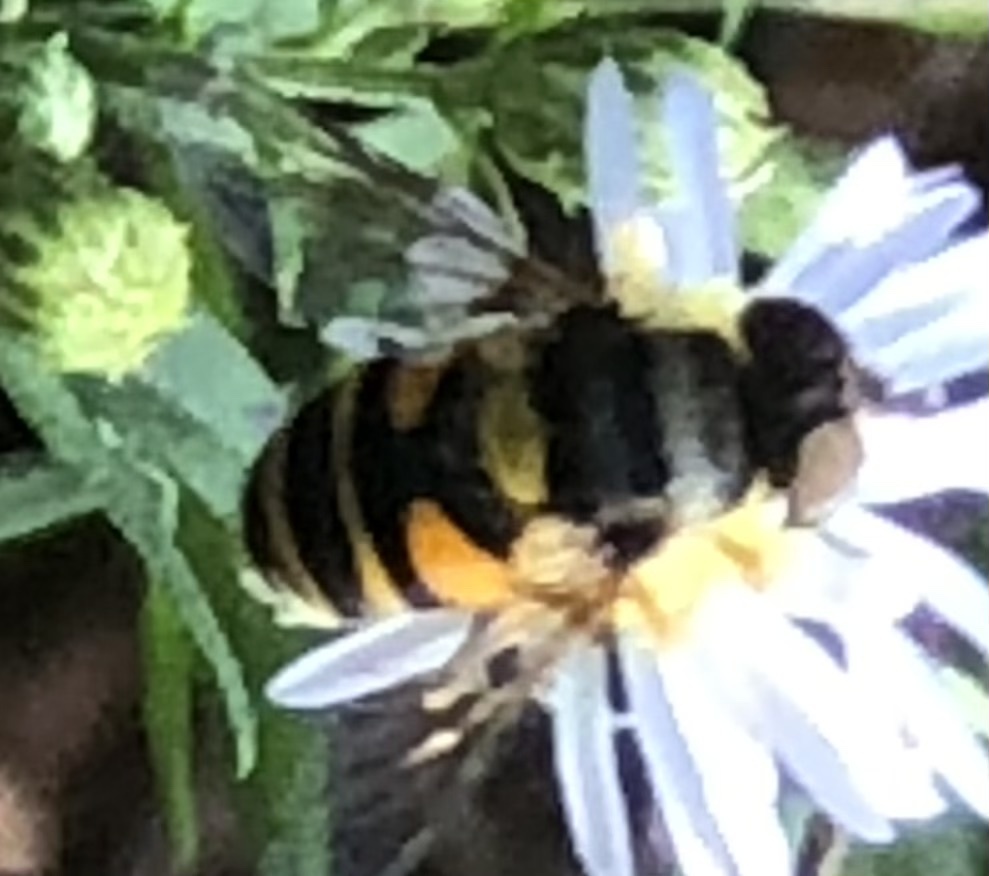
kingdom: Animalia
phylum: Arthropoda
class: Insecta
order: Diptera
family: Syrphidae
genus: Eristalis
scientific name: Eristalis transversa
